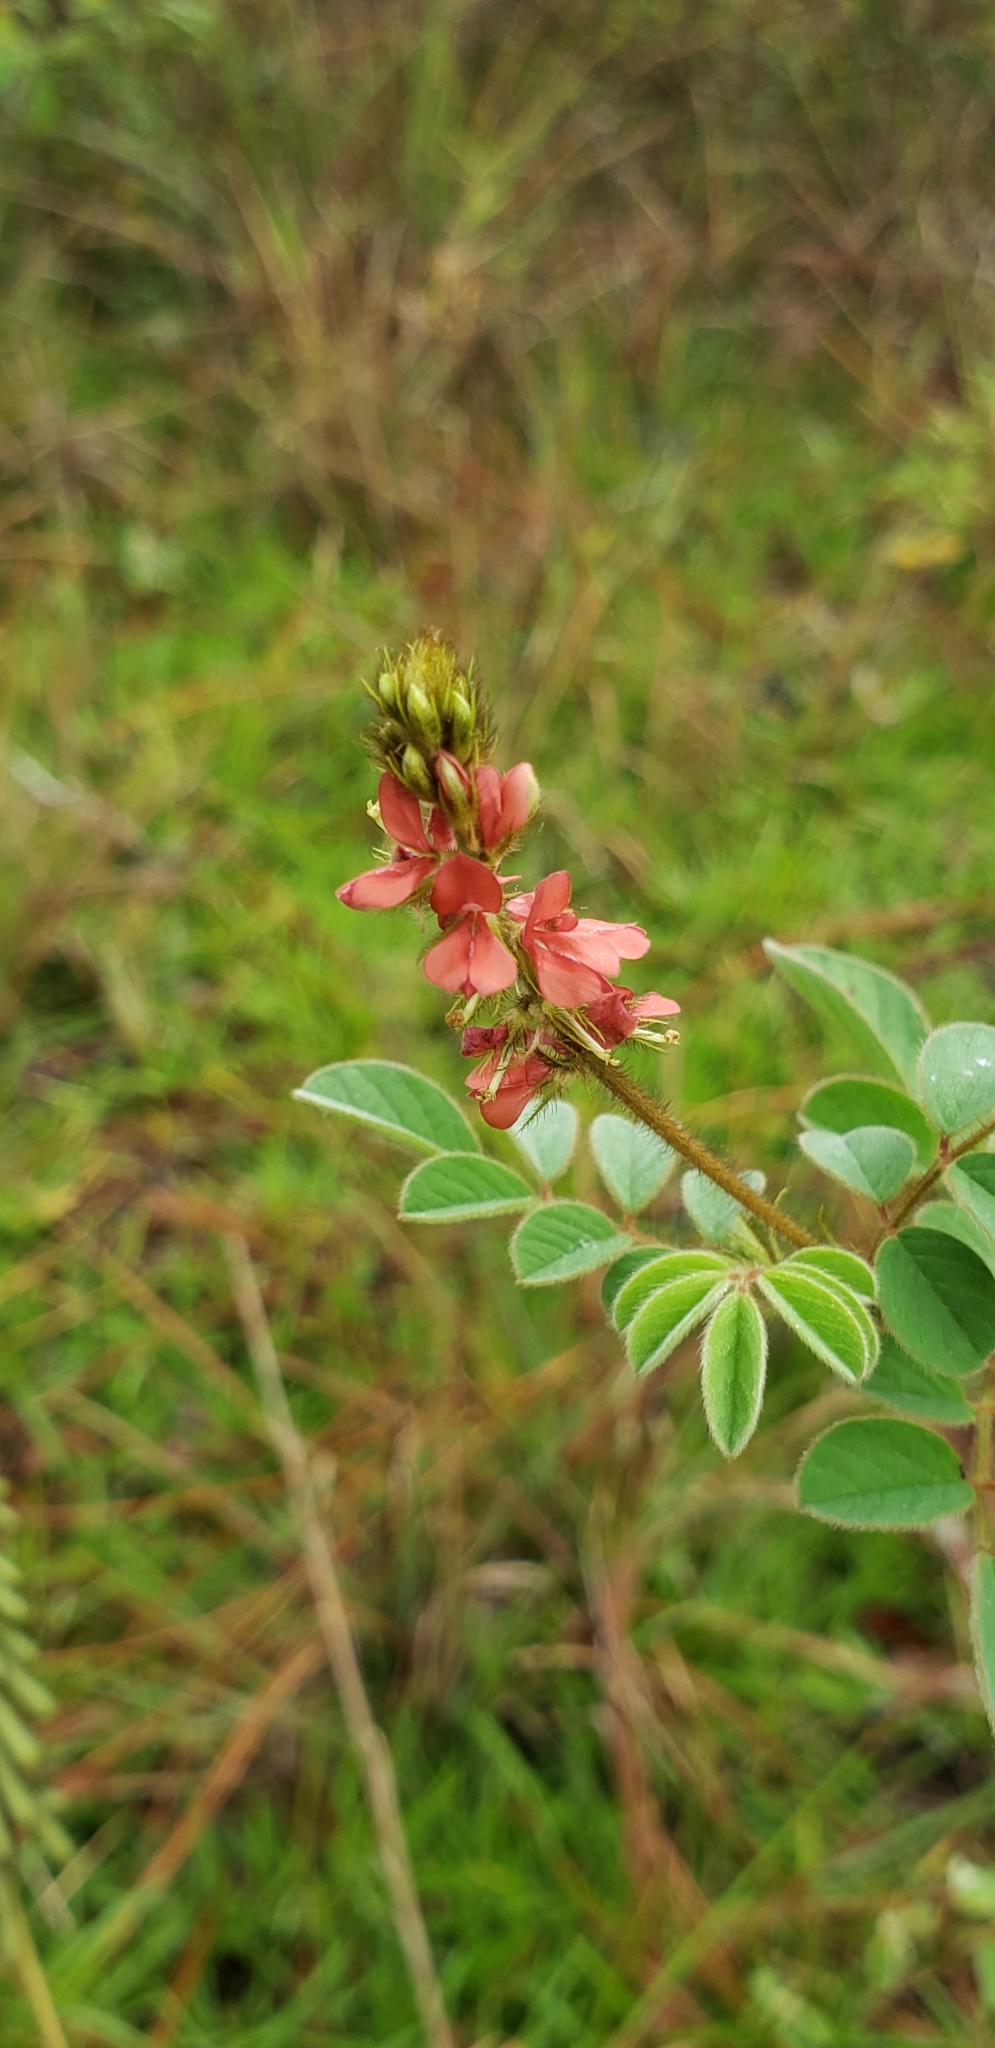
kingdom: Plantae
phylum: Tracheophyta
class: Magnoliopsida
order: Fabales
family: Fabaceae
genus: Indigofera
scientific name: Indigofera hirsuta
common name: Hairy indigo
